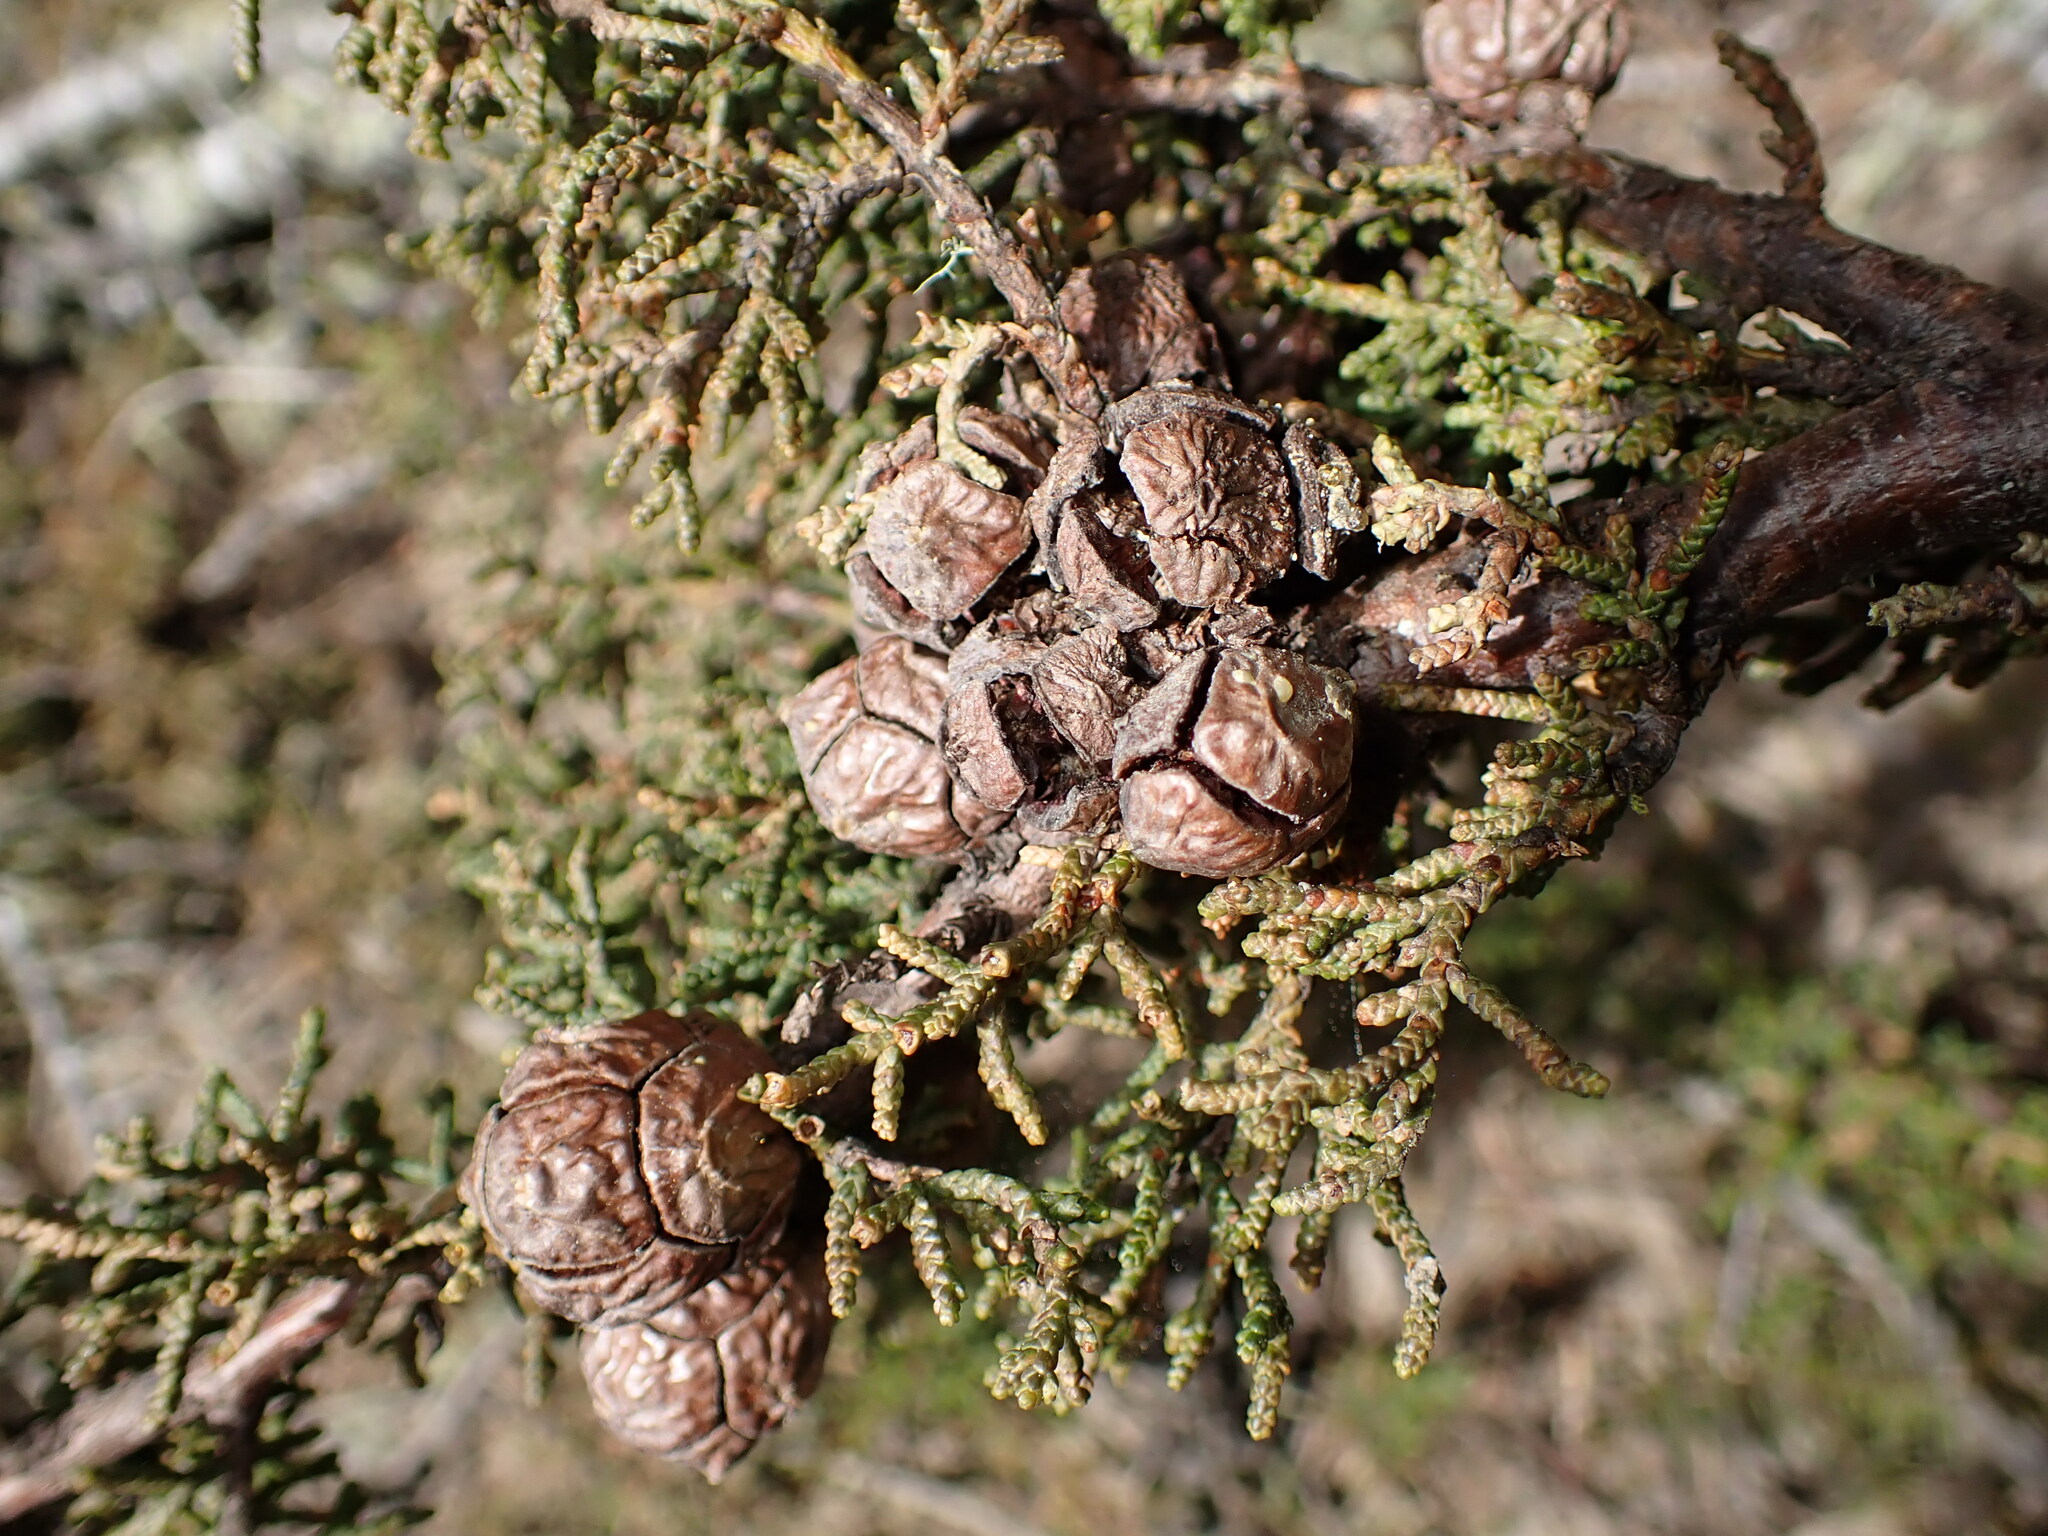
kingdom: Plantae
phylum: Tracheophyta
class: Pinopsida
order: Pinales
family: Cupressaceae
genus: Cupressus
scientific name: Cupressus goveniana
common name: Gowen cypress
